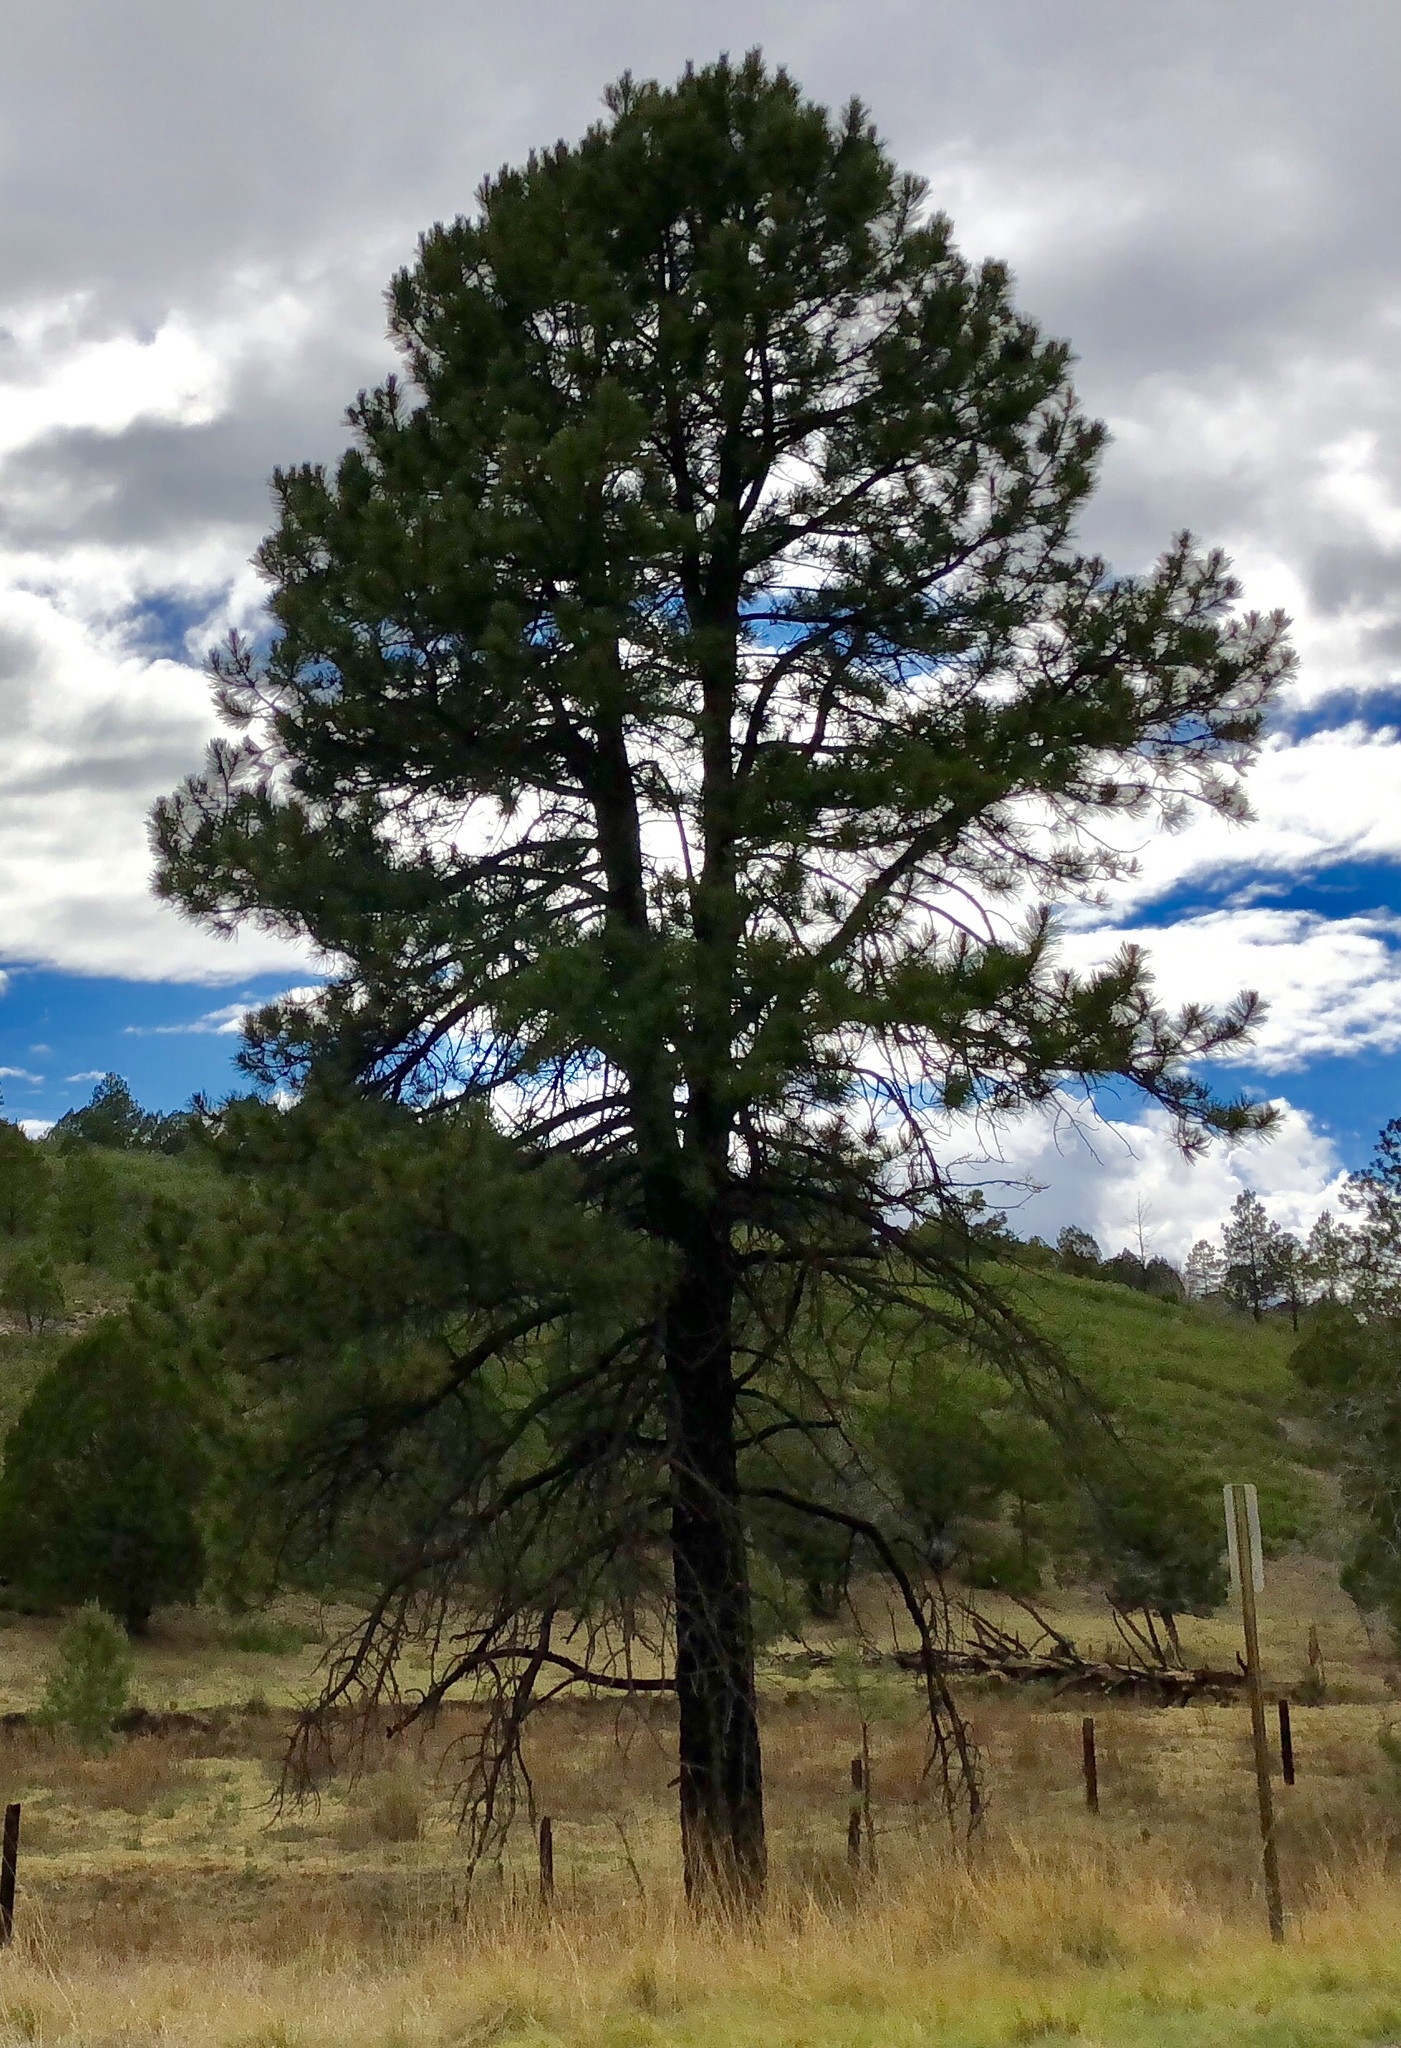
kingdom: Plantae
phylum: Tracheophyta
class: Pinopsida
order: Pinales
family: Pinaceae
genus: Pinus
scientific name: Pinus ponderosa
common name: Western yellow-pine
